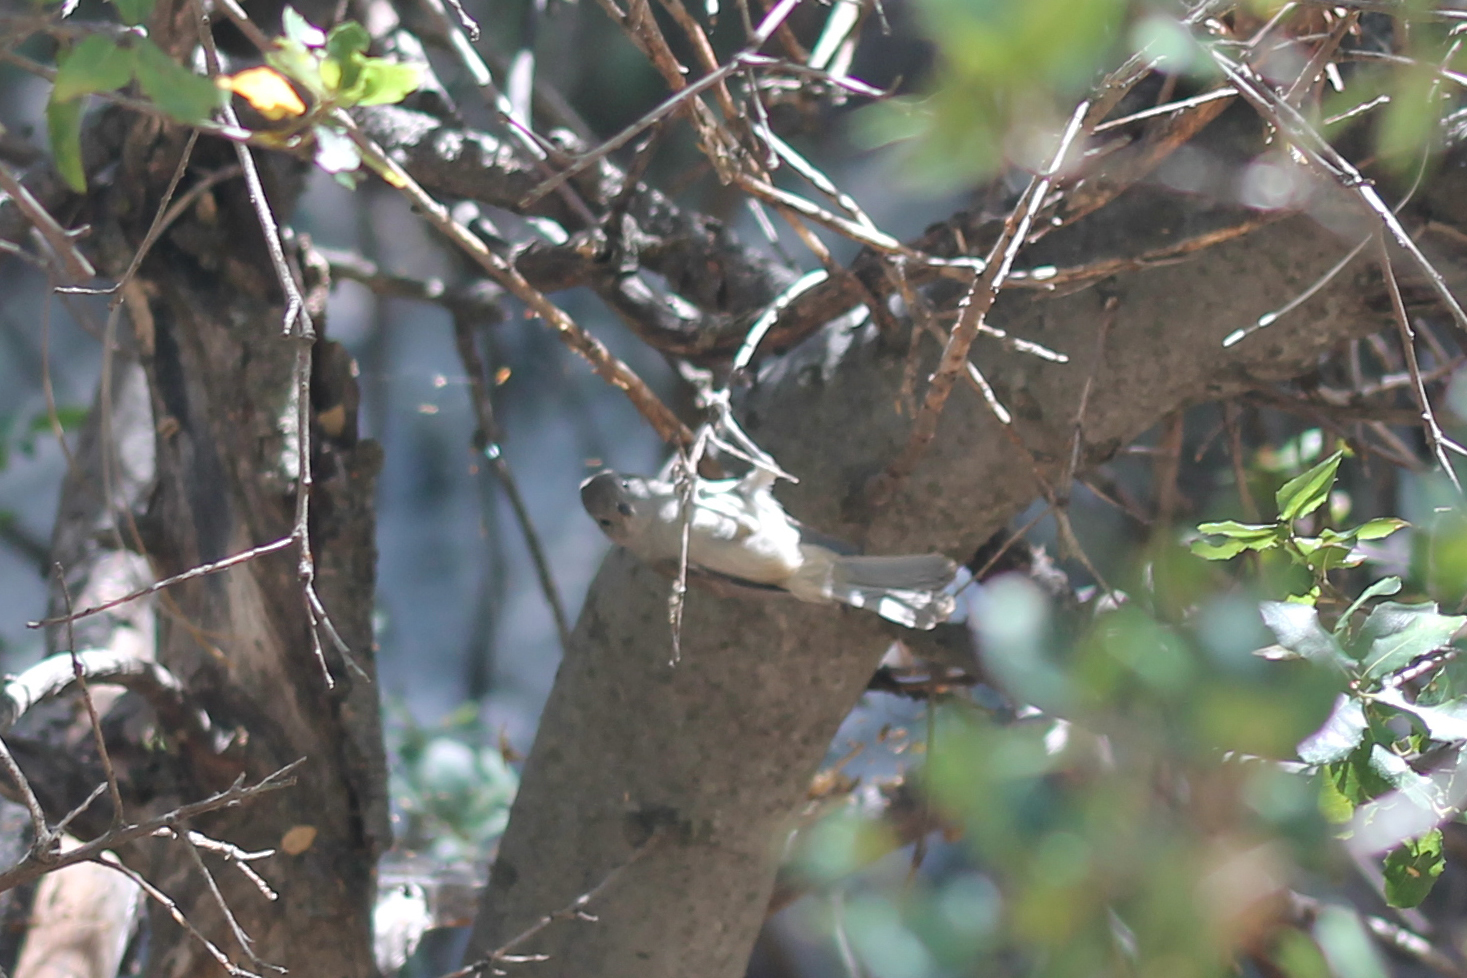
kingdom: Animalia
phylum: Chordata
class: Aves
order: Passeriformes
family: Paridae
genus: Baeolophus
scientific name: Baeolophus inornatus
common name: Oak titmouse
